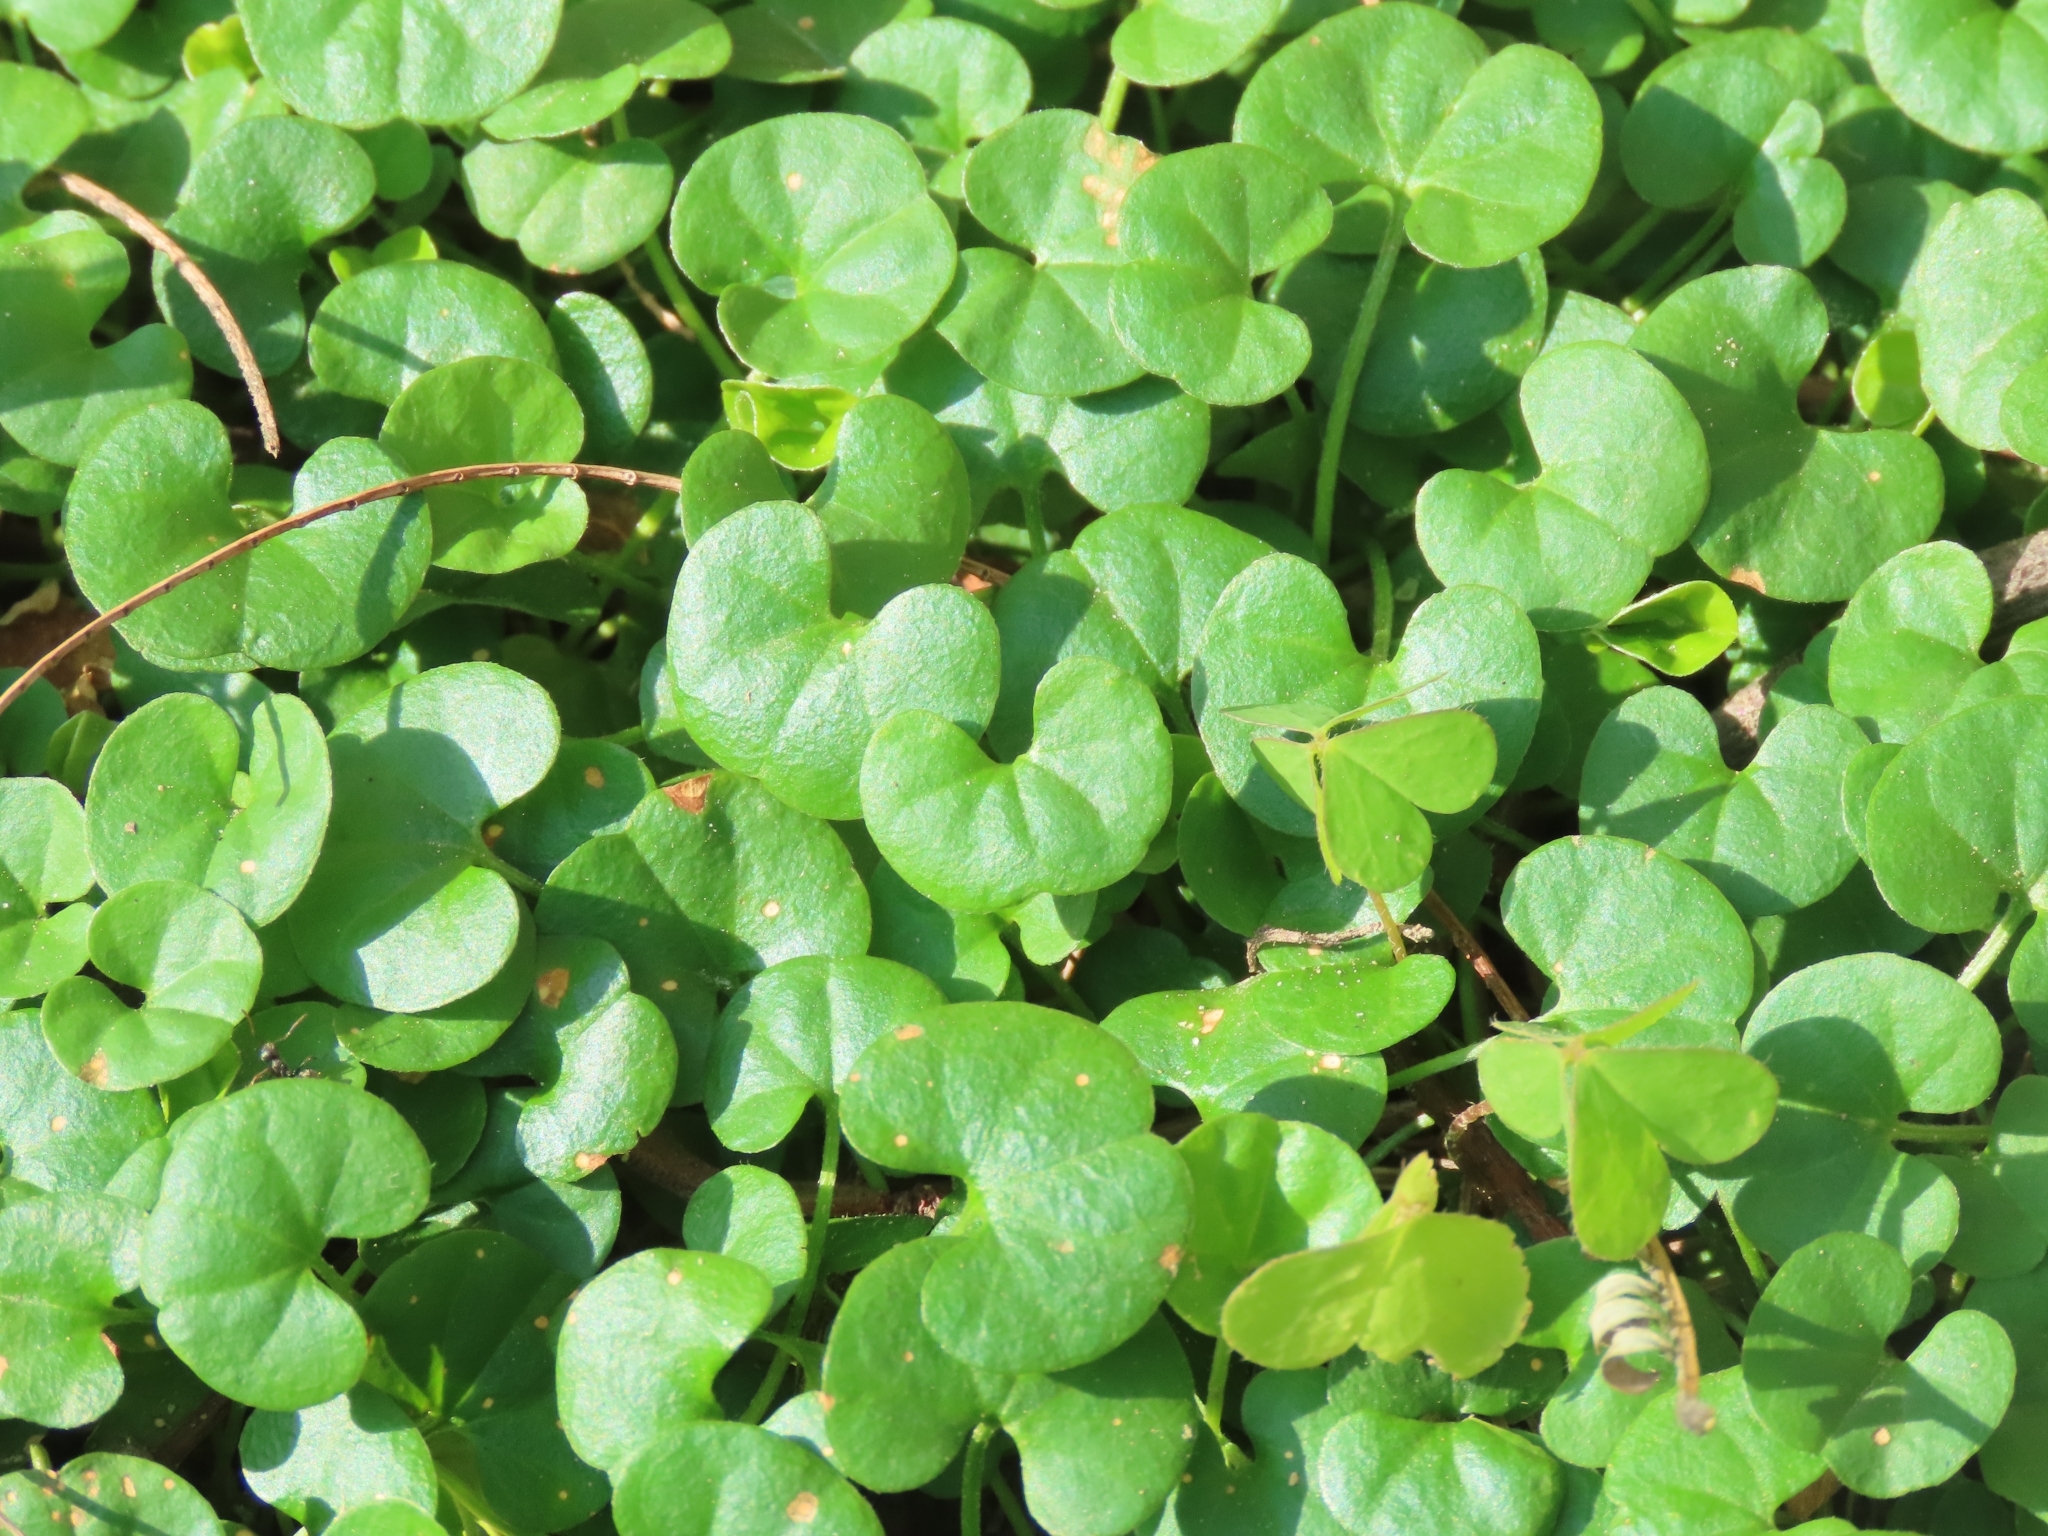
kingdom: Plantae
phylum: Tracheophyta
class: Magnoliopsida
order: Solanales
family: Convolvulaceae
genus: Dichondra
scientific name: Dichondra micrantha
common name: Kidneyweed
